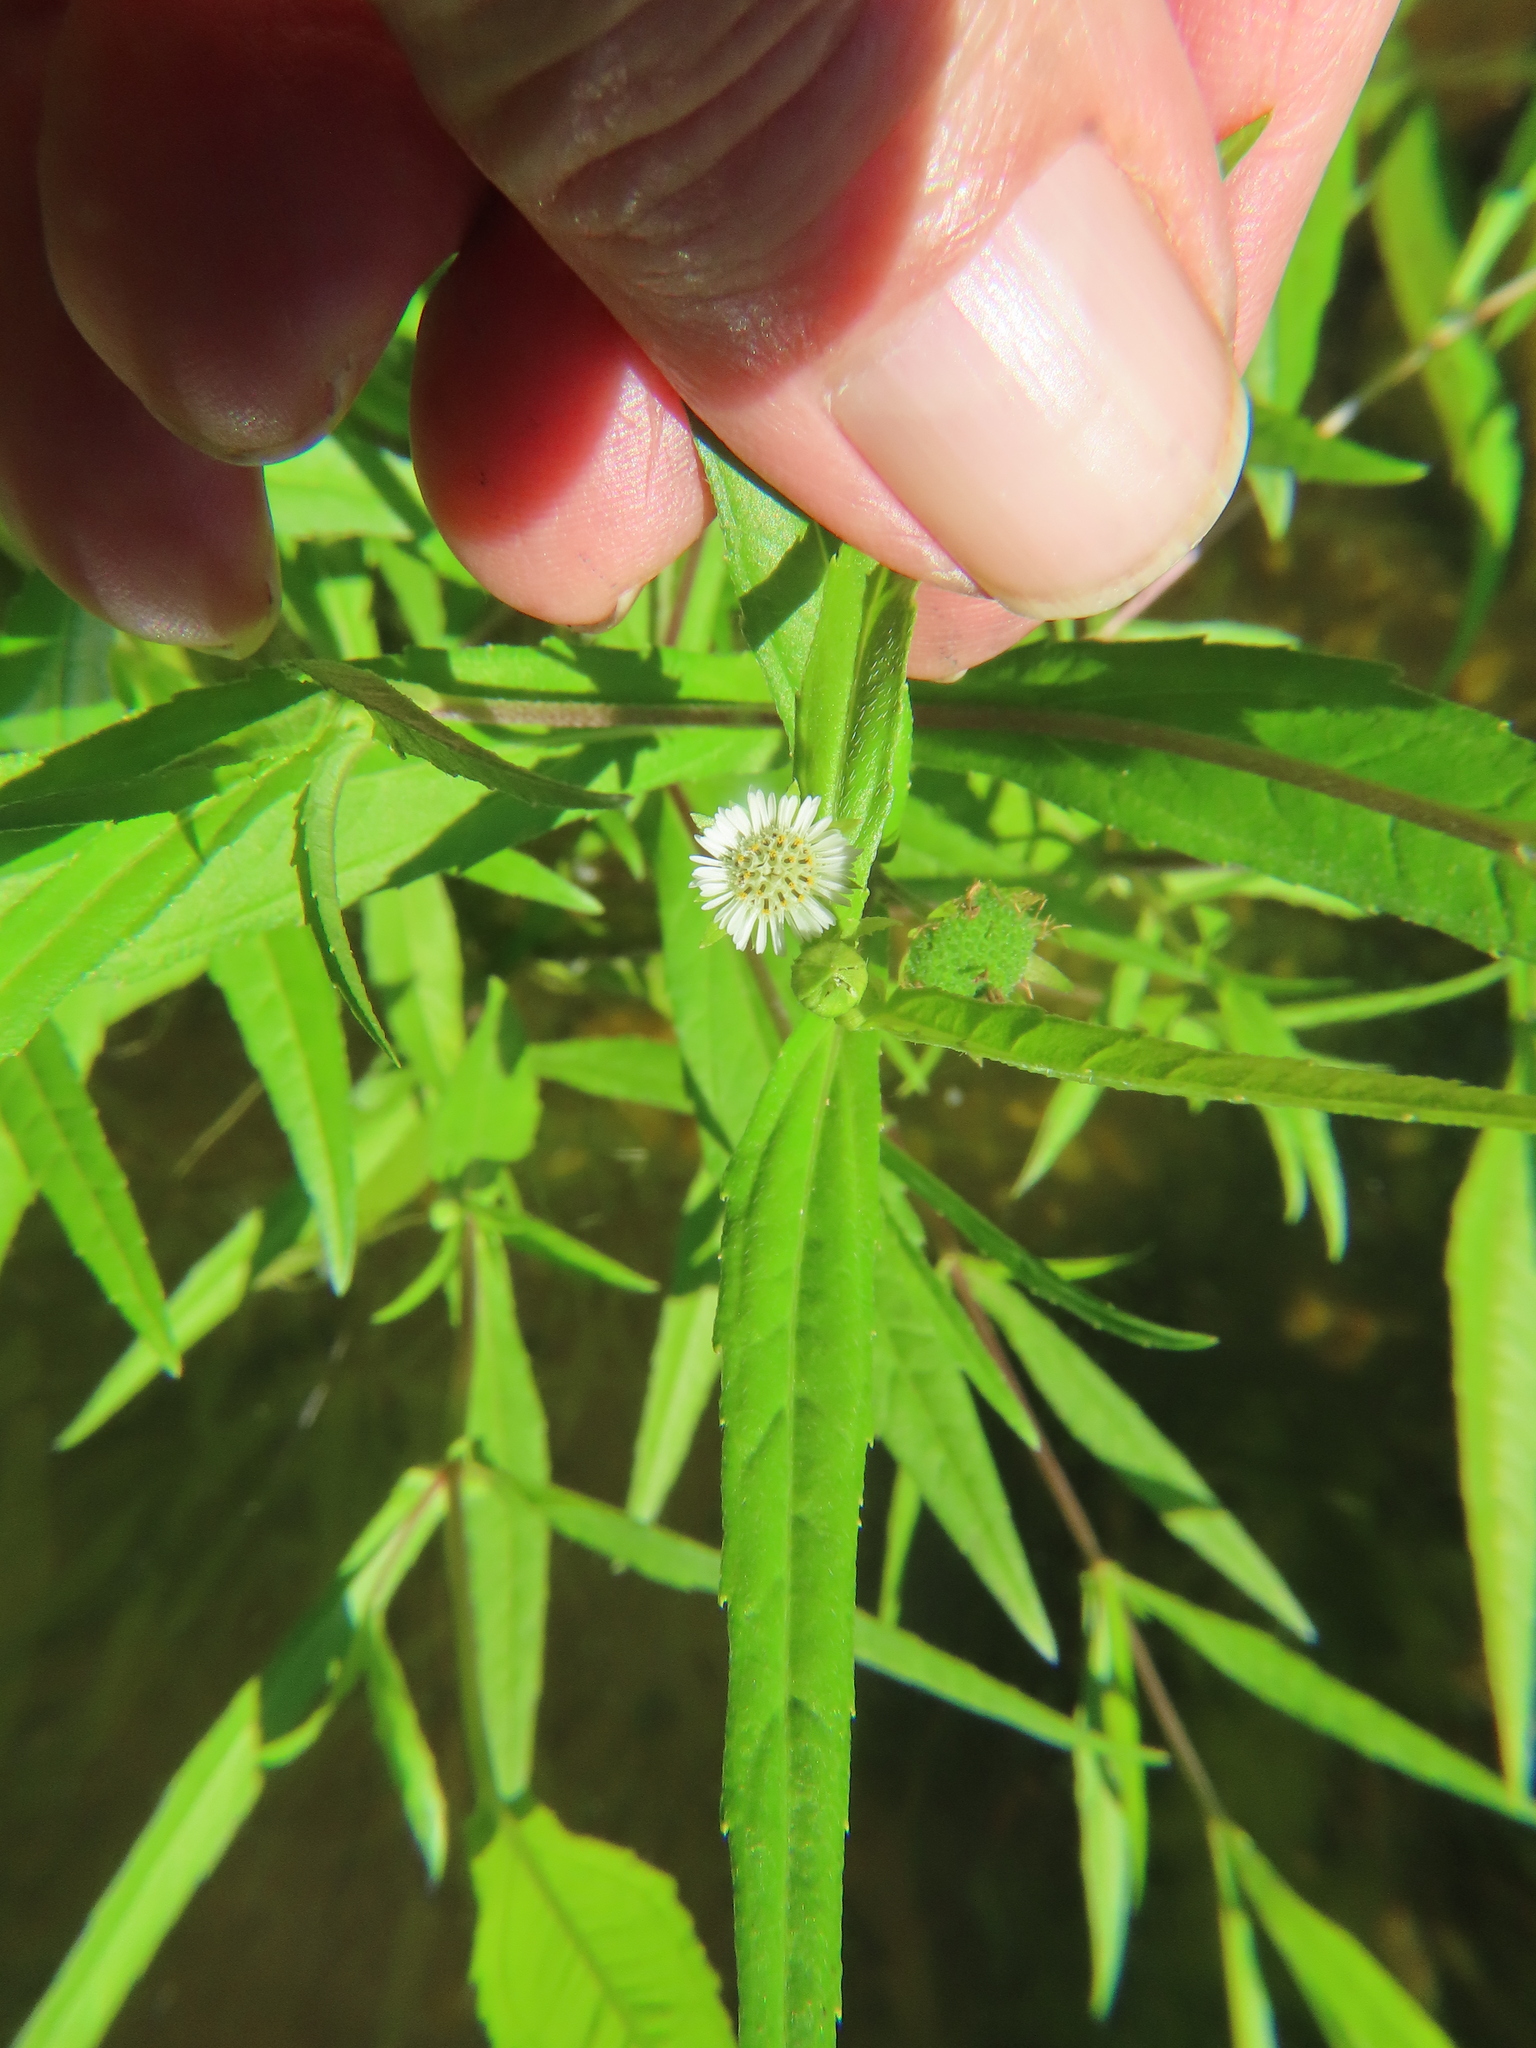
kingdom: Plantae
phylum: Tracheophyta
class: Magnoliopsida
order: Asterales
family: Asteraceae
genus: Eclipta
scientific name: Eclipta prostrata
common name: False daisy
